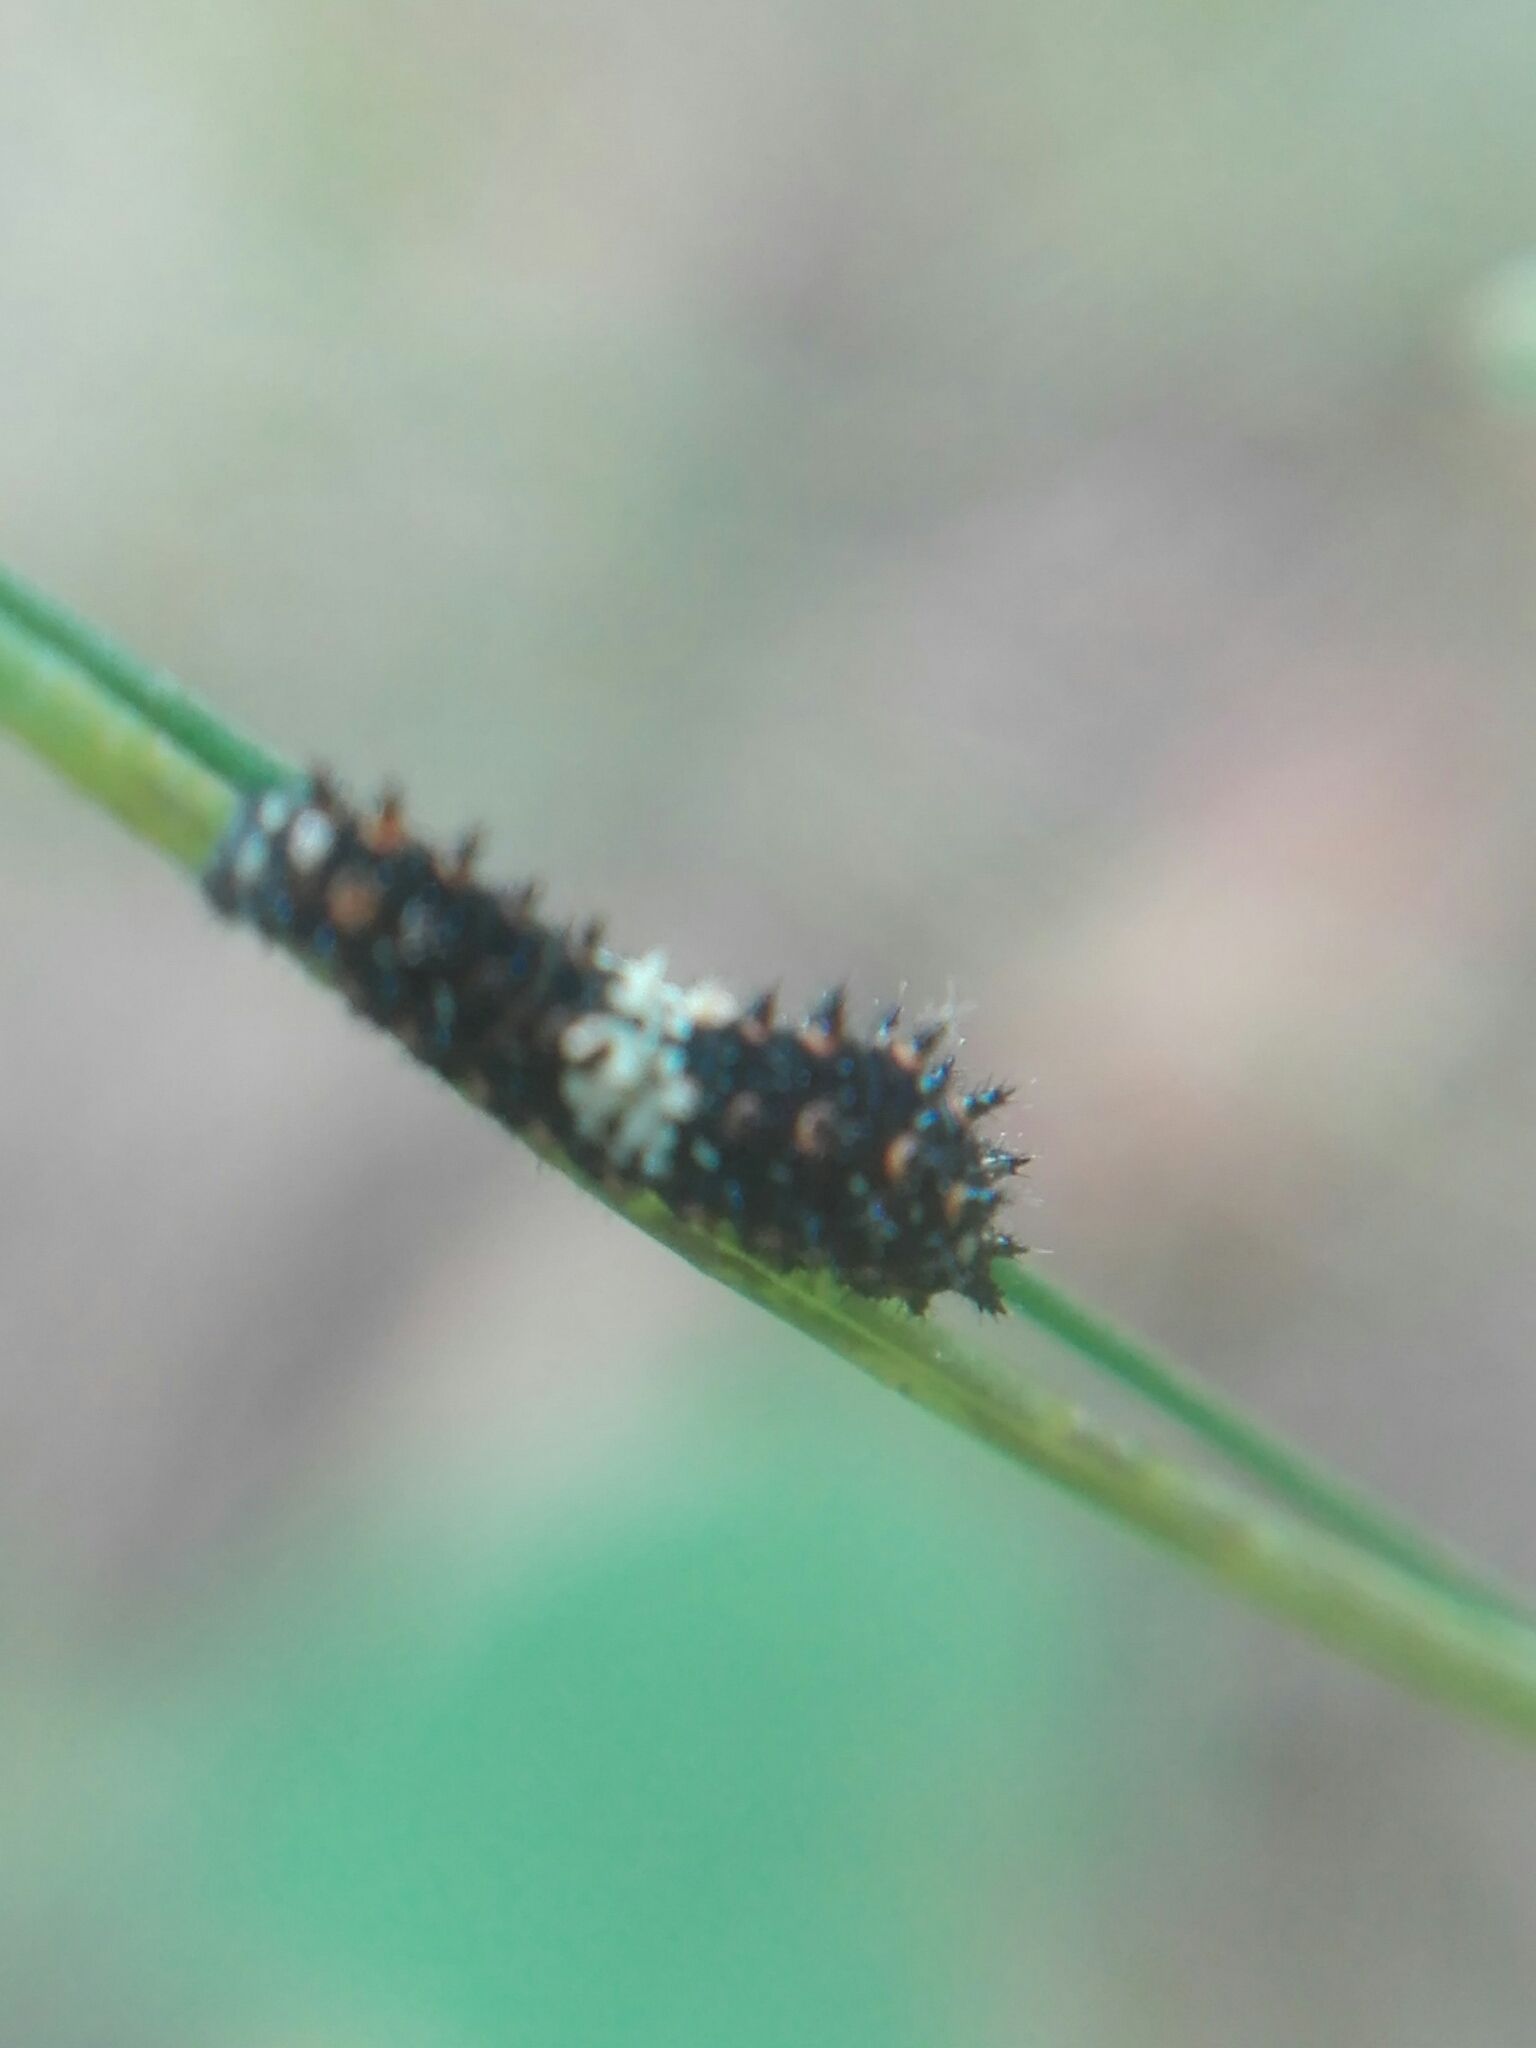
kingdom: Animalia
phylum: Arthropoda
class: Insecta
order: Lepidoptera
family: Papilionidae
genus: Papilio
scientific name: Papilio polyxenes
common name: Black swallowtail
